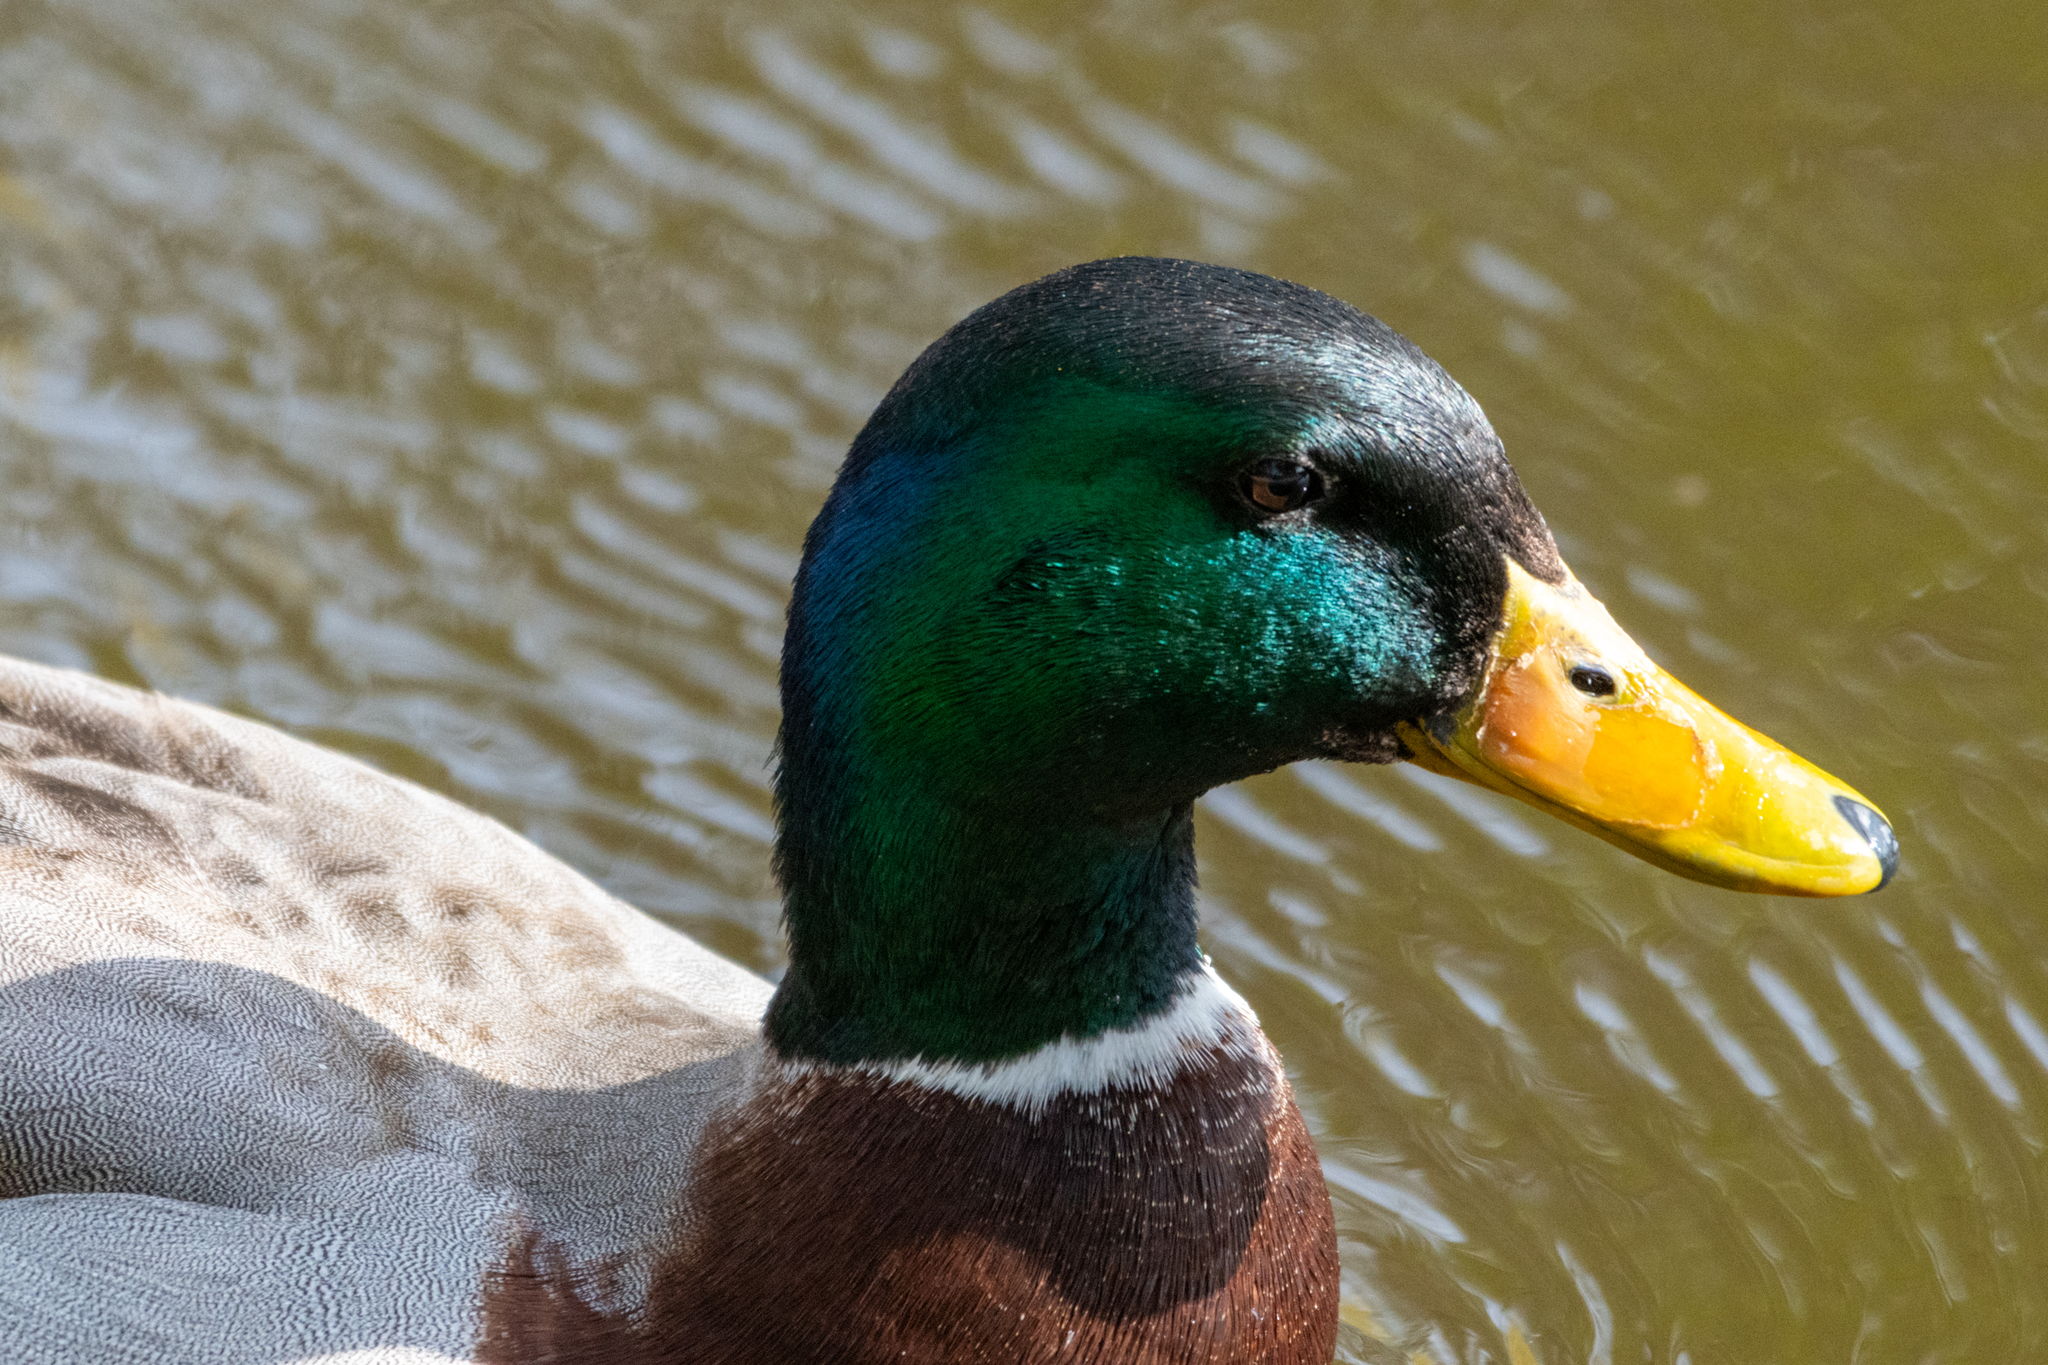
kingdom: Animalia
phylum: Chordata
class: Aves
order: Anseriformes
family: Anatidae
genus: Anas
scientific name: Anas platyrhynchos
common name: Mallard
